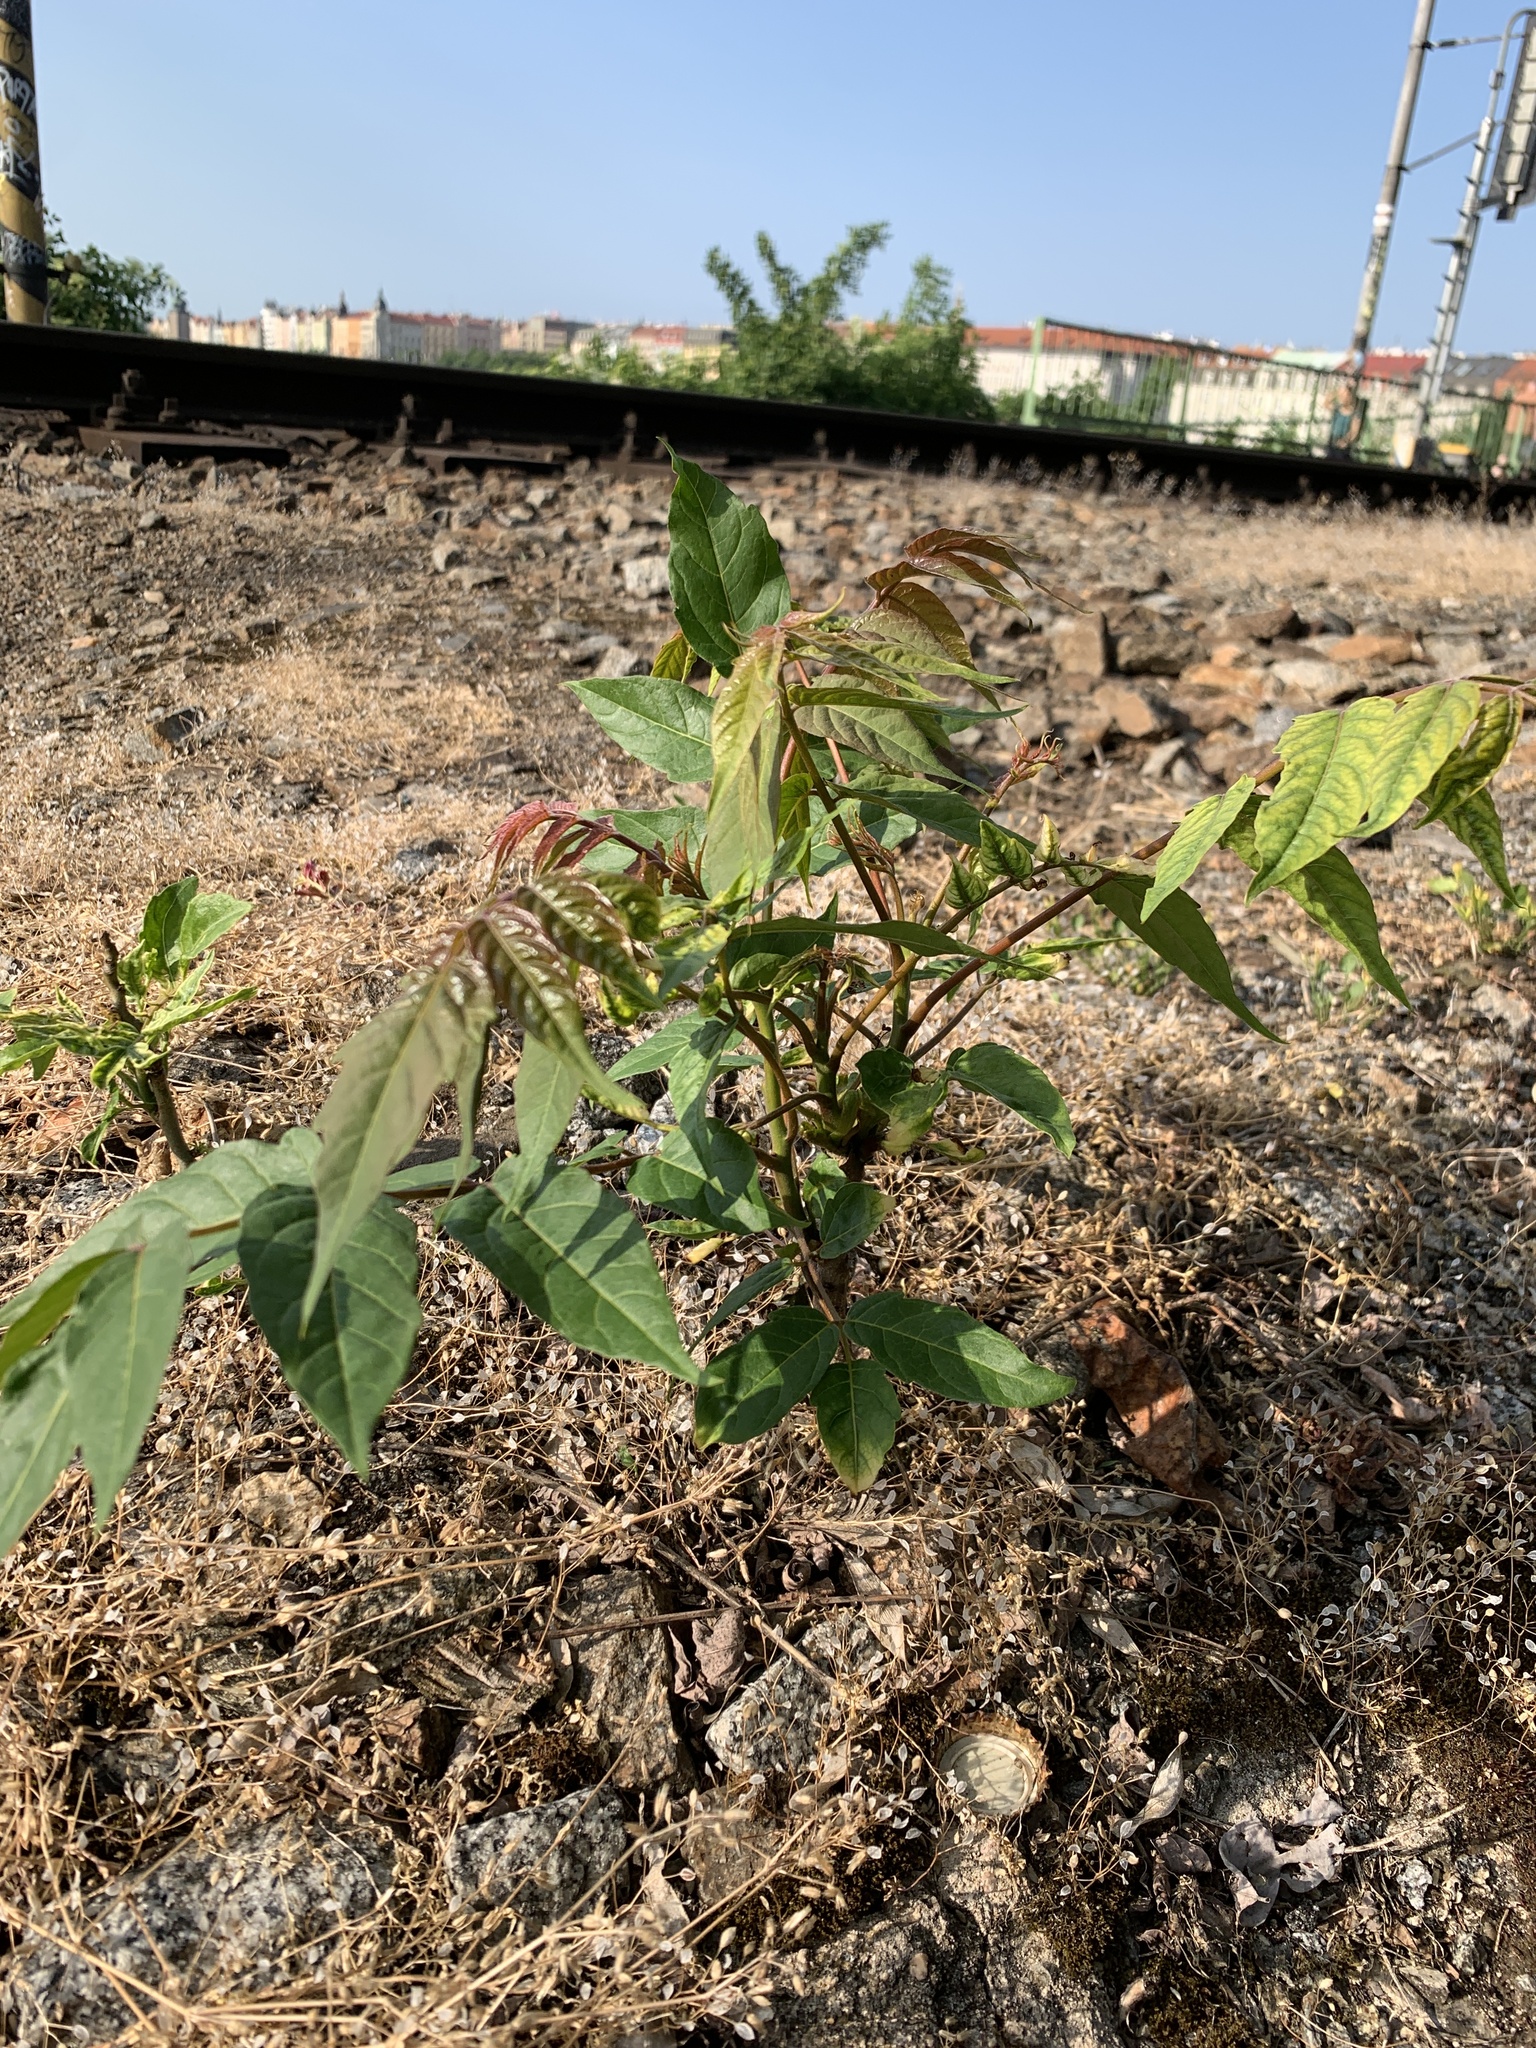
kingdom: Plantae
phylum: Tracheophyta
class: Magnoliopsida
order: Sapindales
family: Simaroubaceae
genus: Ailanthus
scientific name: Ailanthus altissima
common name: Tree-of-heaven
